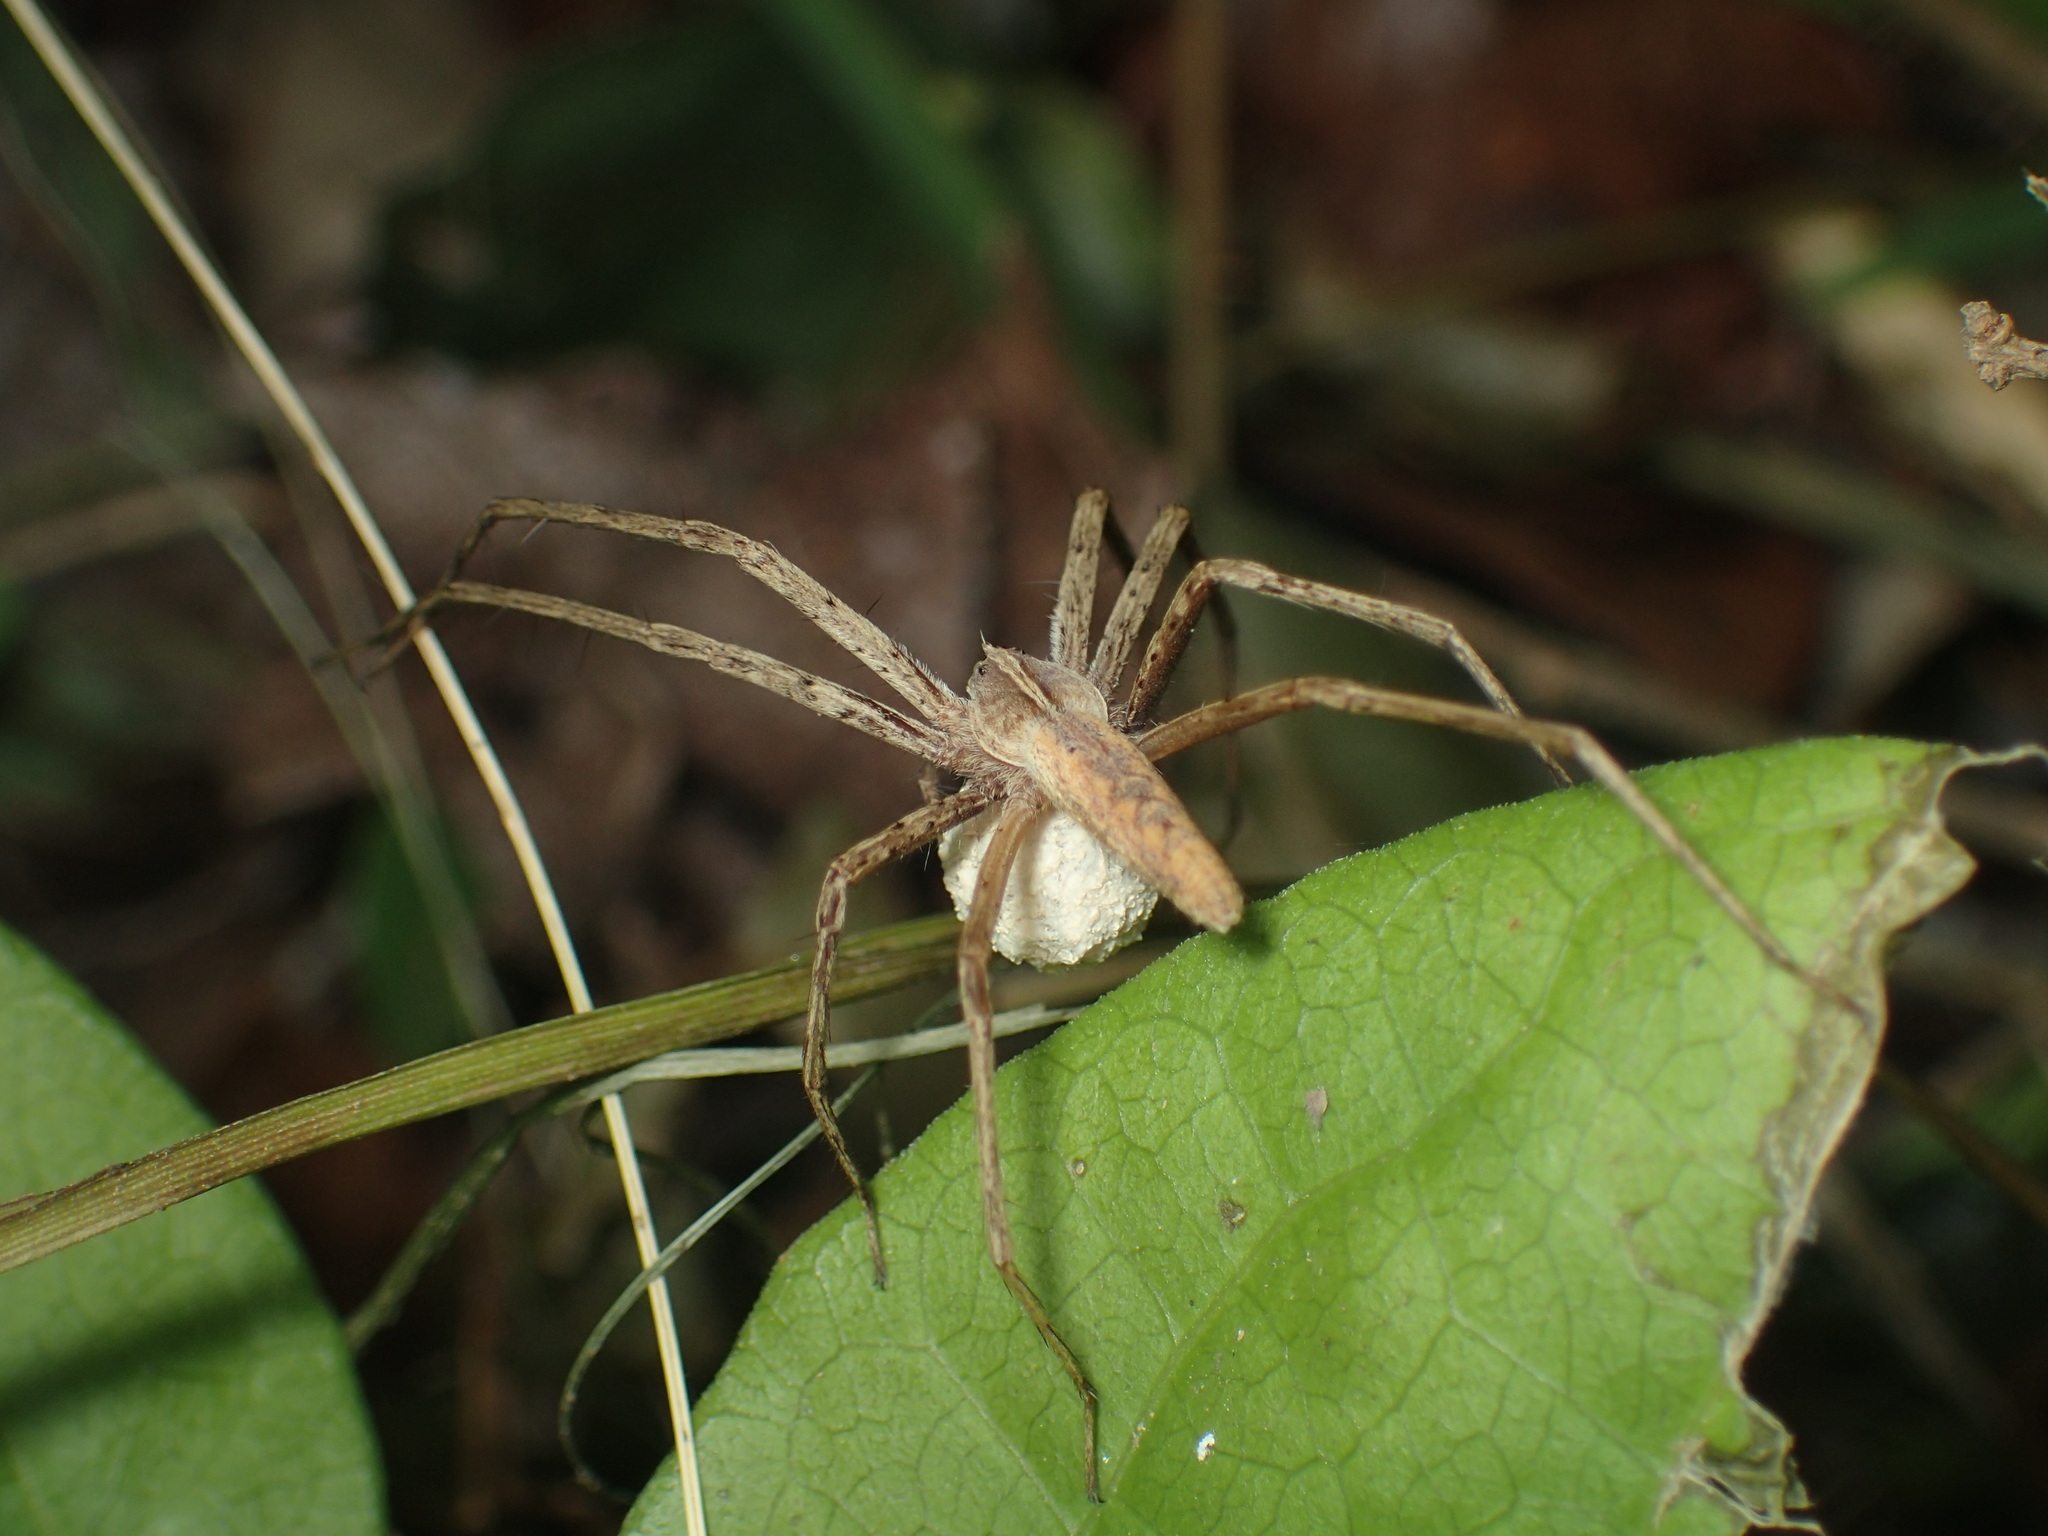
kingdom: Animalia
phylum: Arthropoda
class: Arachnida
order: Araneae
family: Pisauridae
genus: Pisaurina
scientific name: Pisaurina dubia
